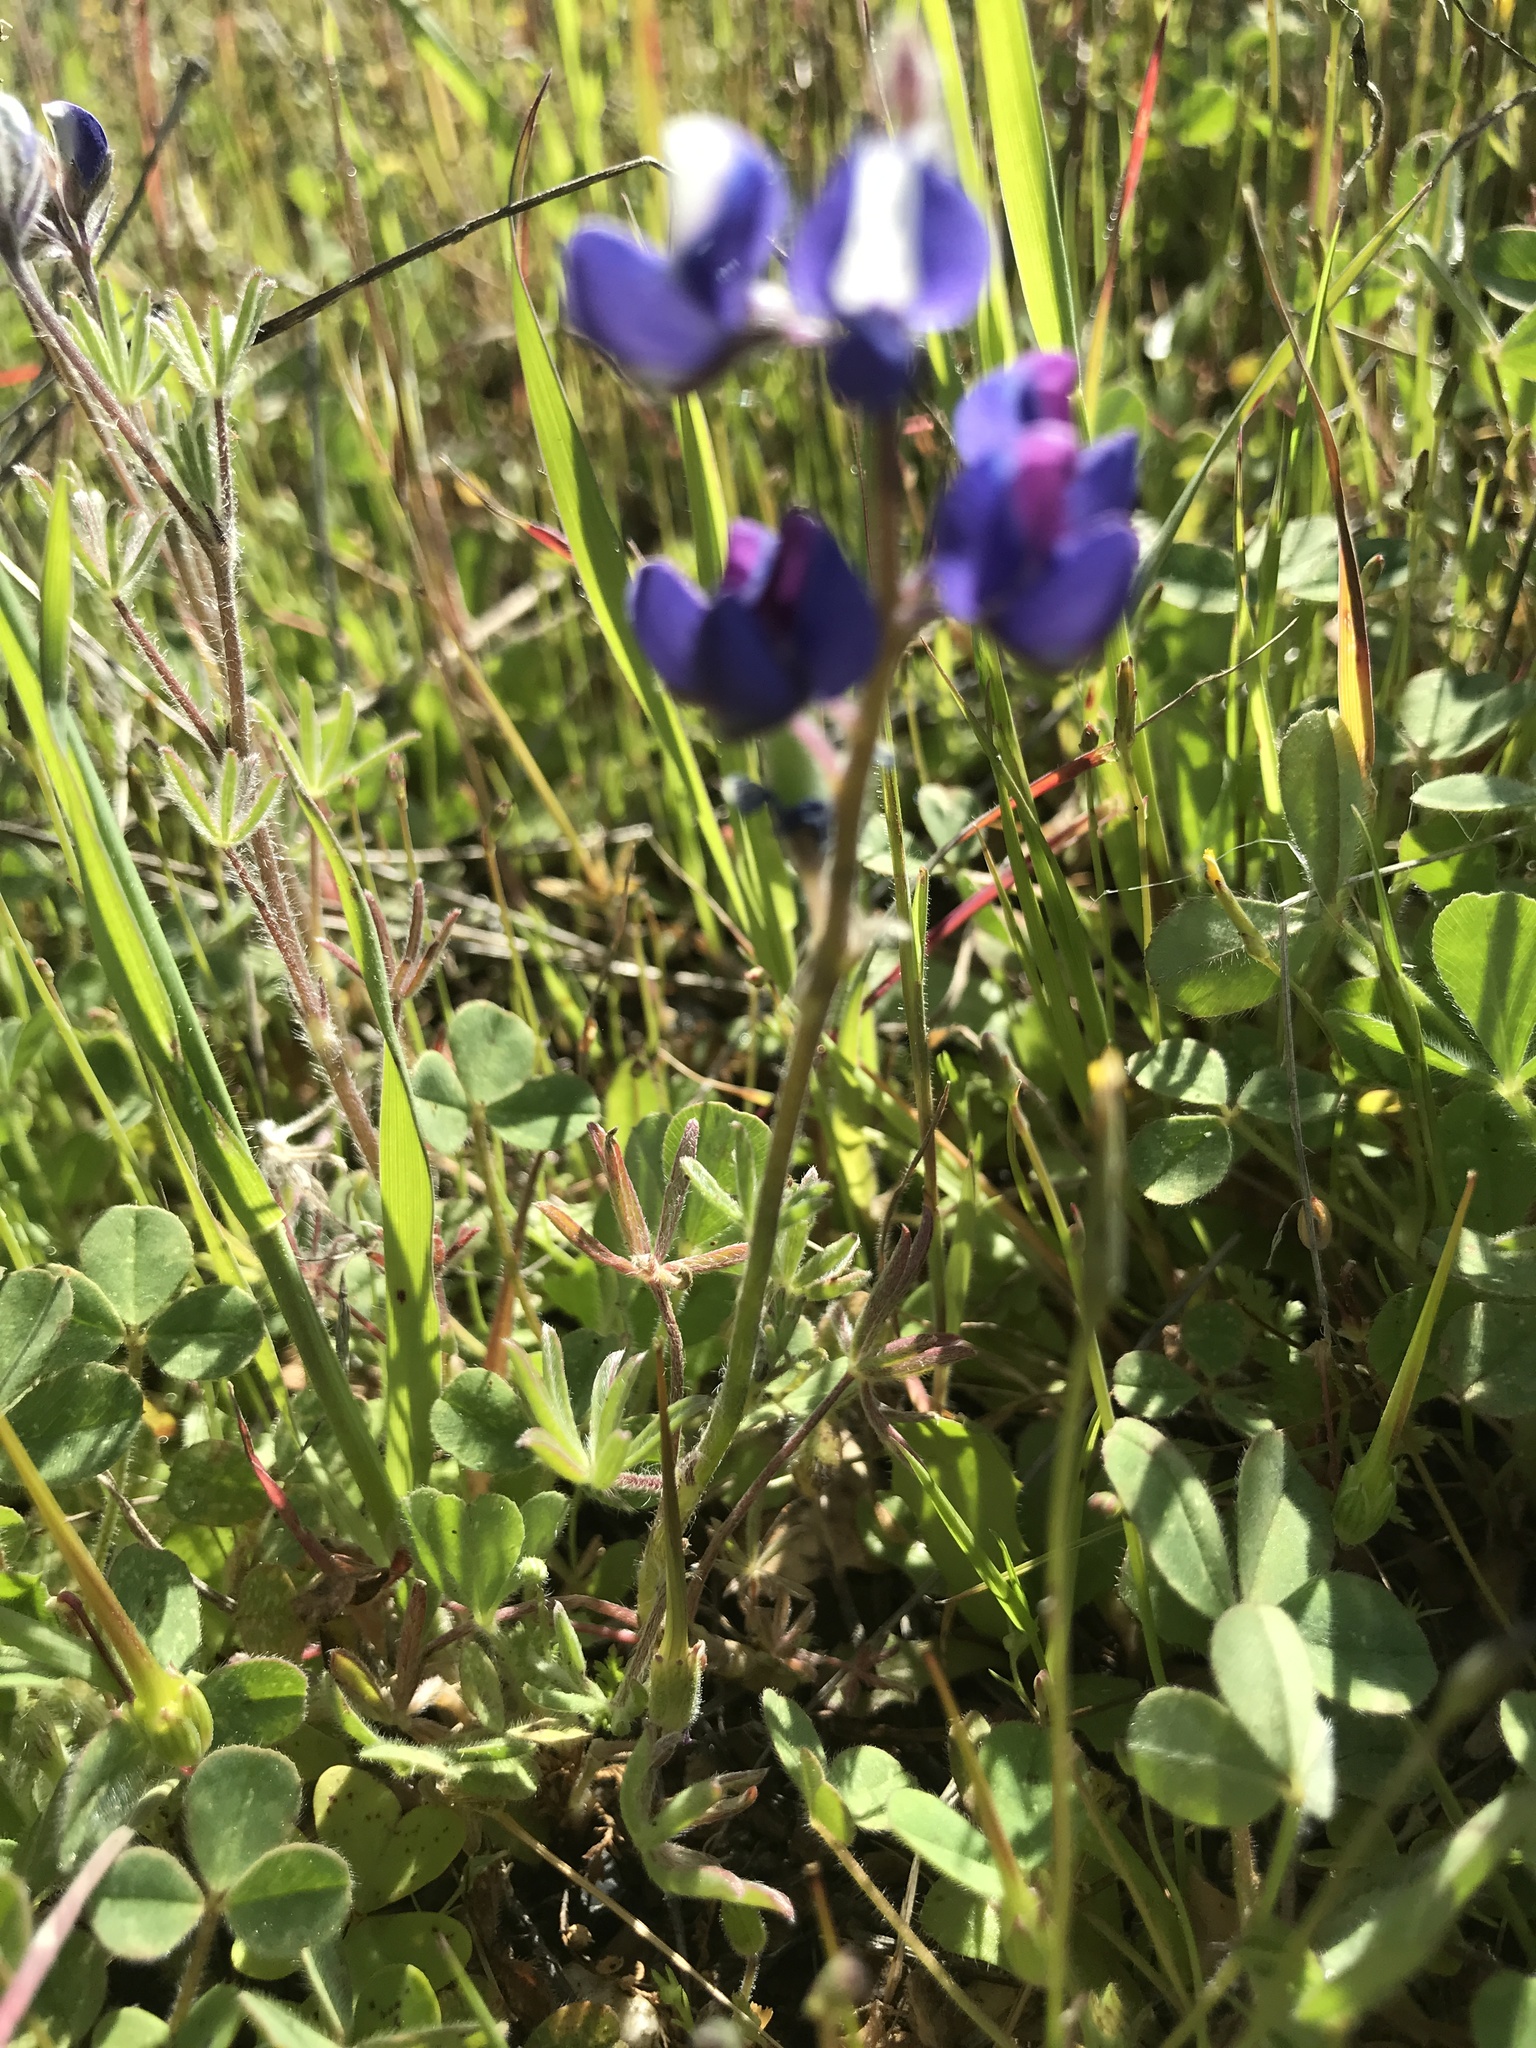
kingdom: Plantae
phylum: Tracheophyta
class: Magnoliopsida
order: Fabales
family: Fabaceae
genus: Lupinus
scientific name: Lupinus bicolor
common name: Miniature lupine
